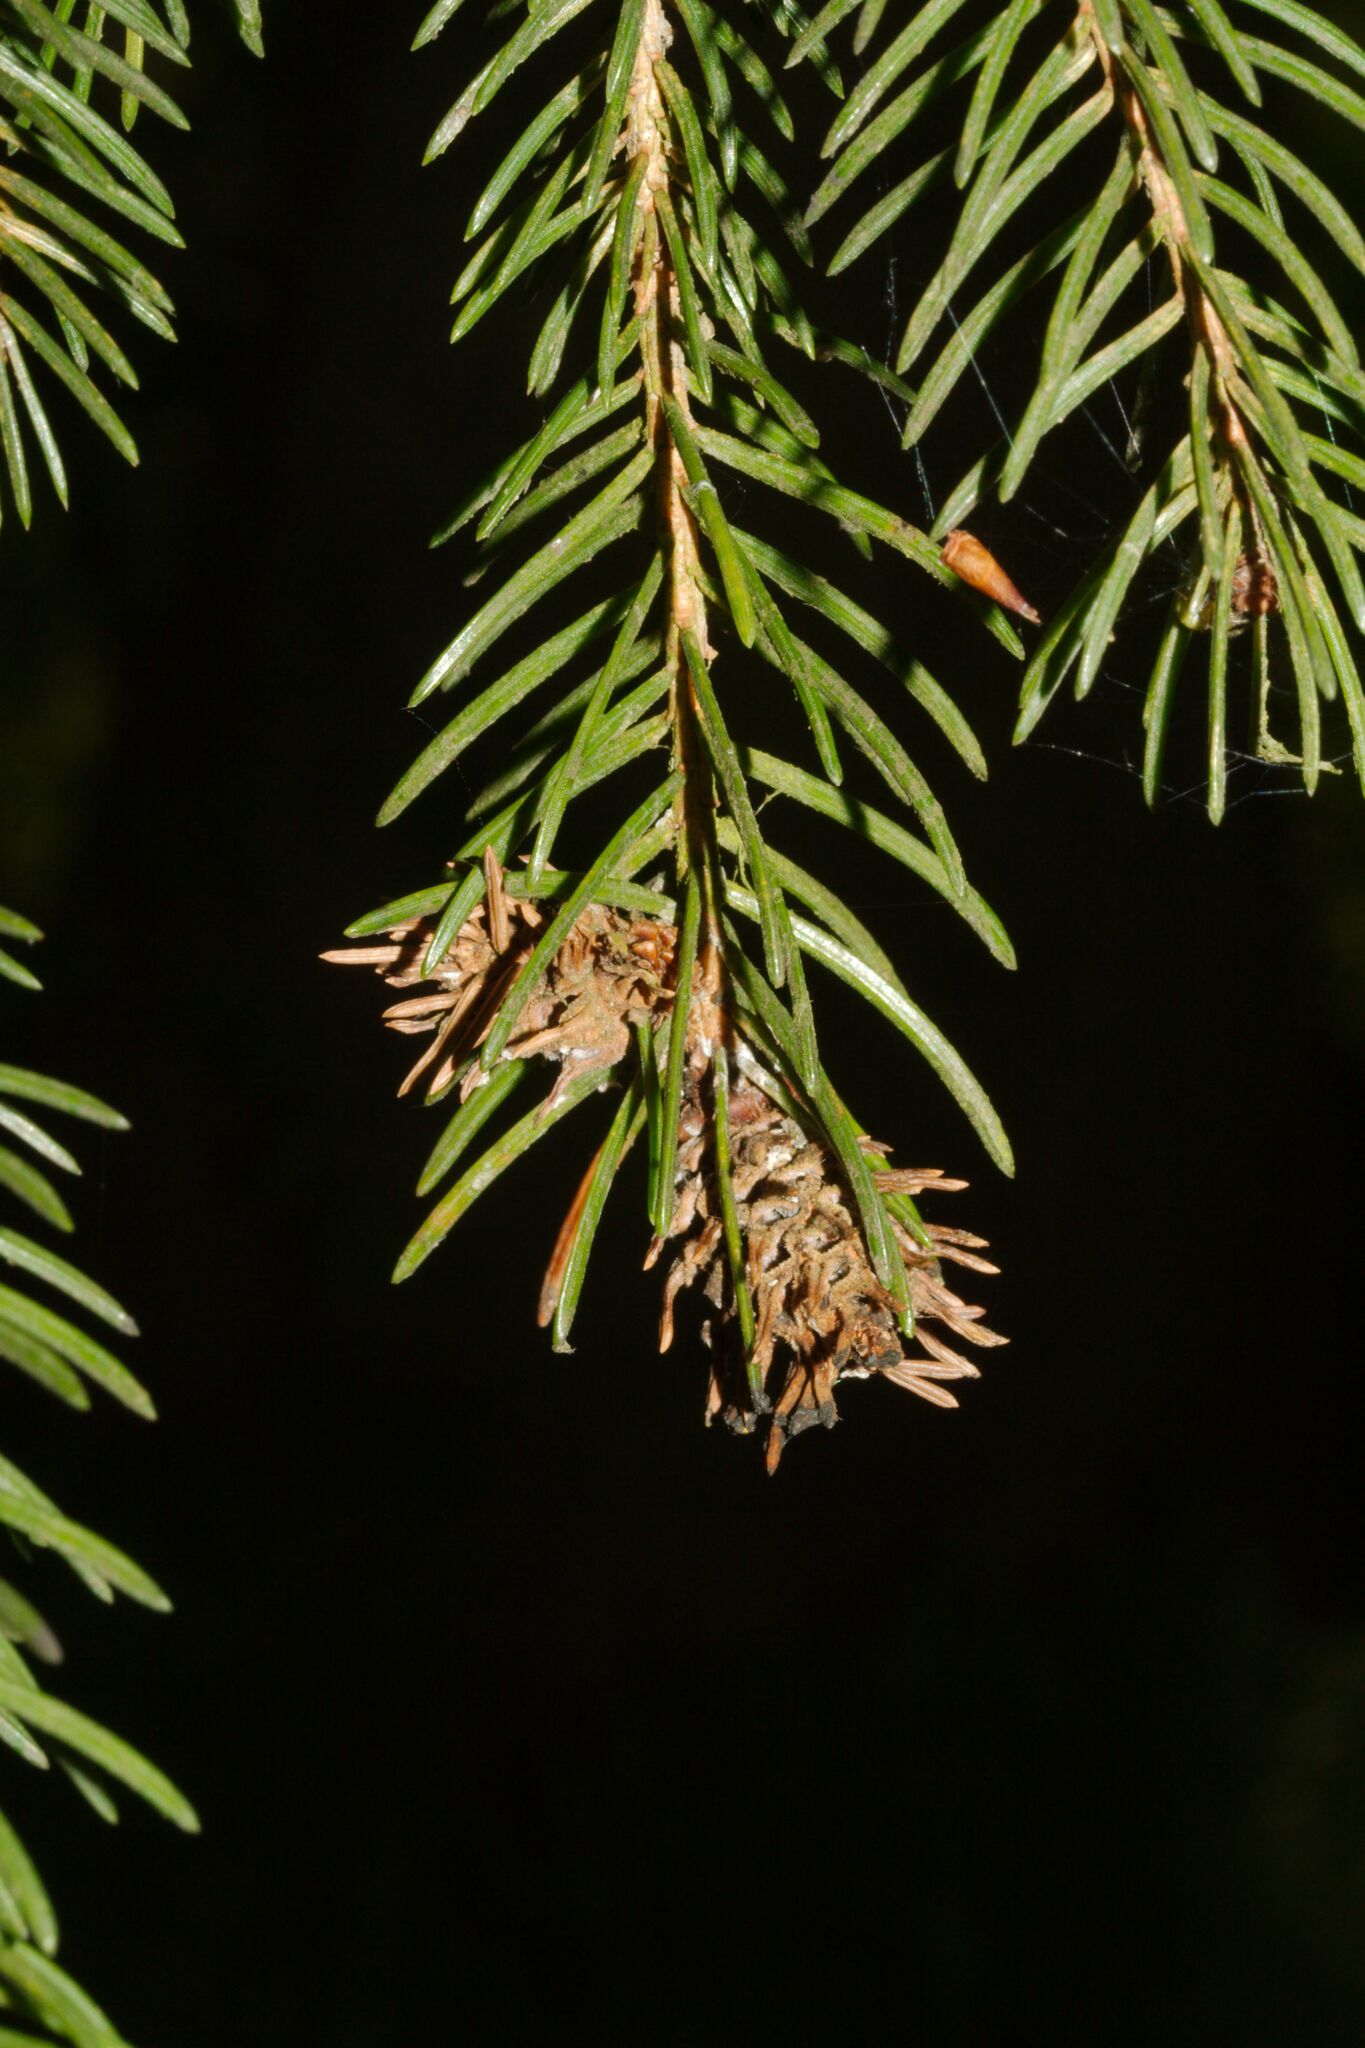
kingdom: Plantae
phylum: Tracheophyta
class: Pinopsida
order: Pinales
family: Pinaceae
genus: Picea
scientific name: Picea abies
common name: Norway spruce
